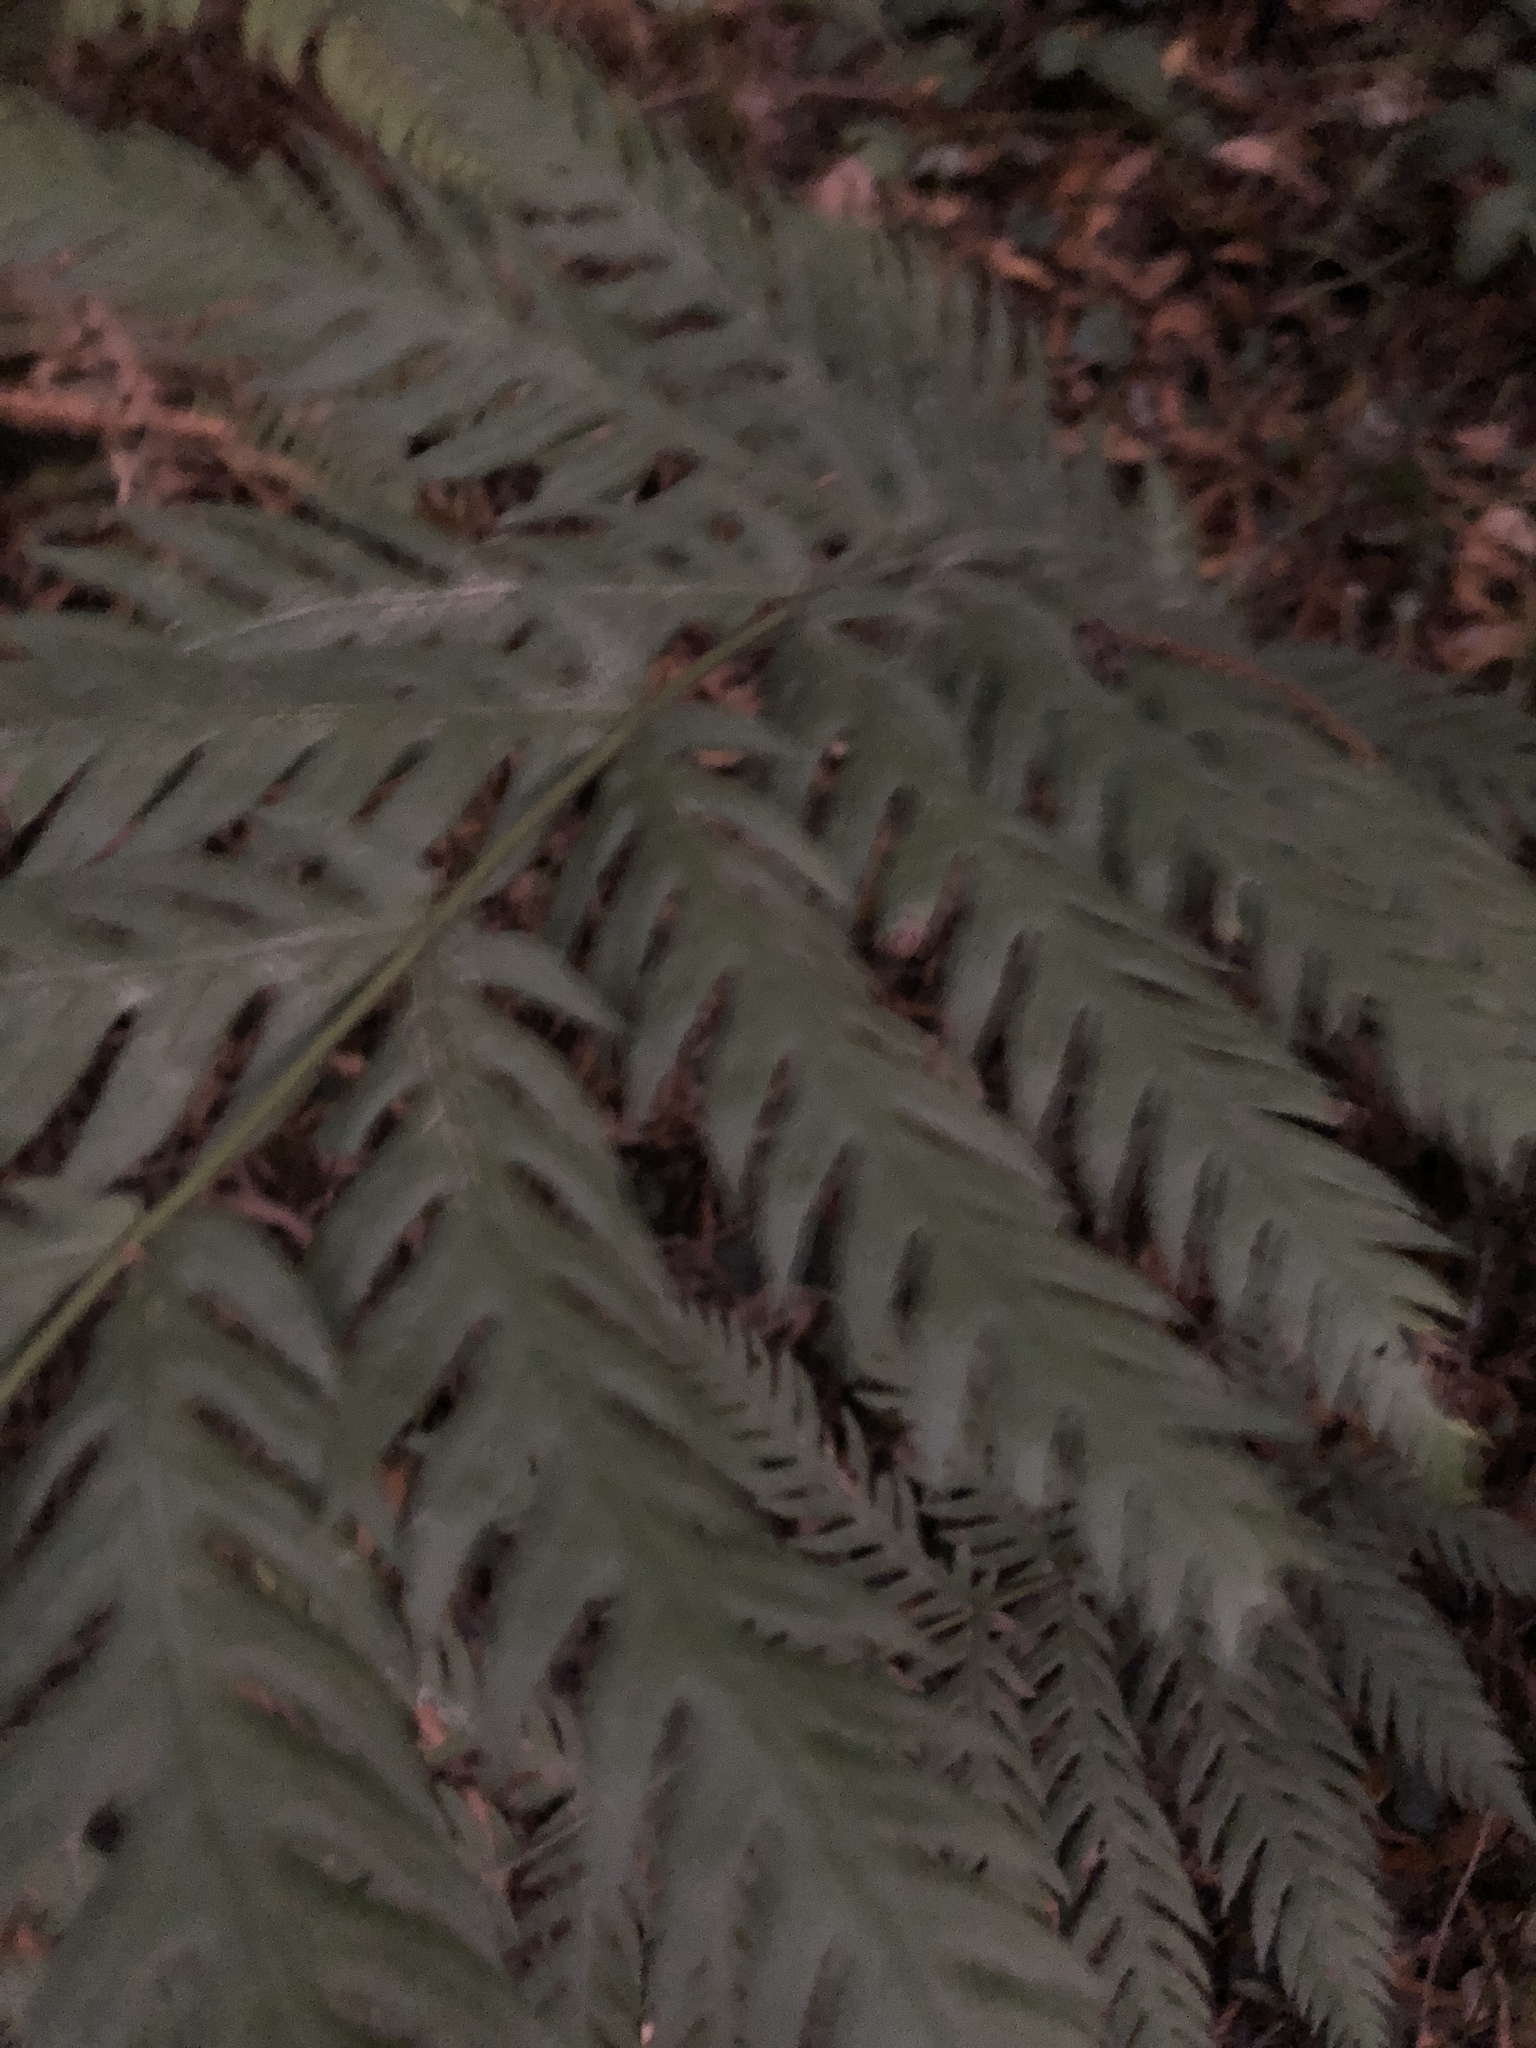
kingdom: Plantae
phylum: Tracheophyta
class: Polypodiopsida
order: Polypodiales
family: Blechnaceae
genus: Woodwardia
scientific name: Woodwardia fimbriata
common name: Giant chain fern
